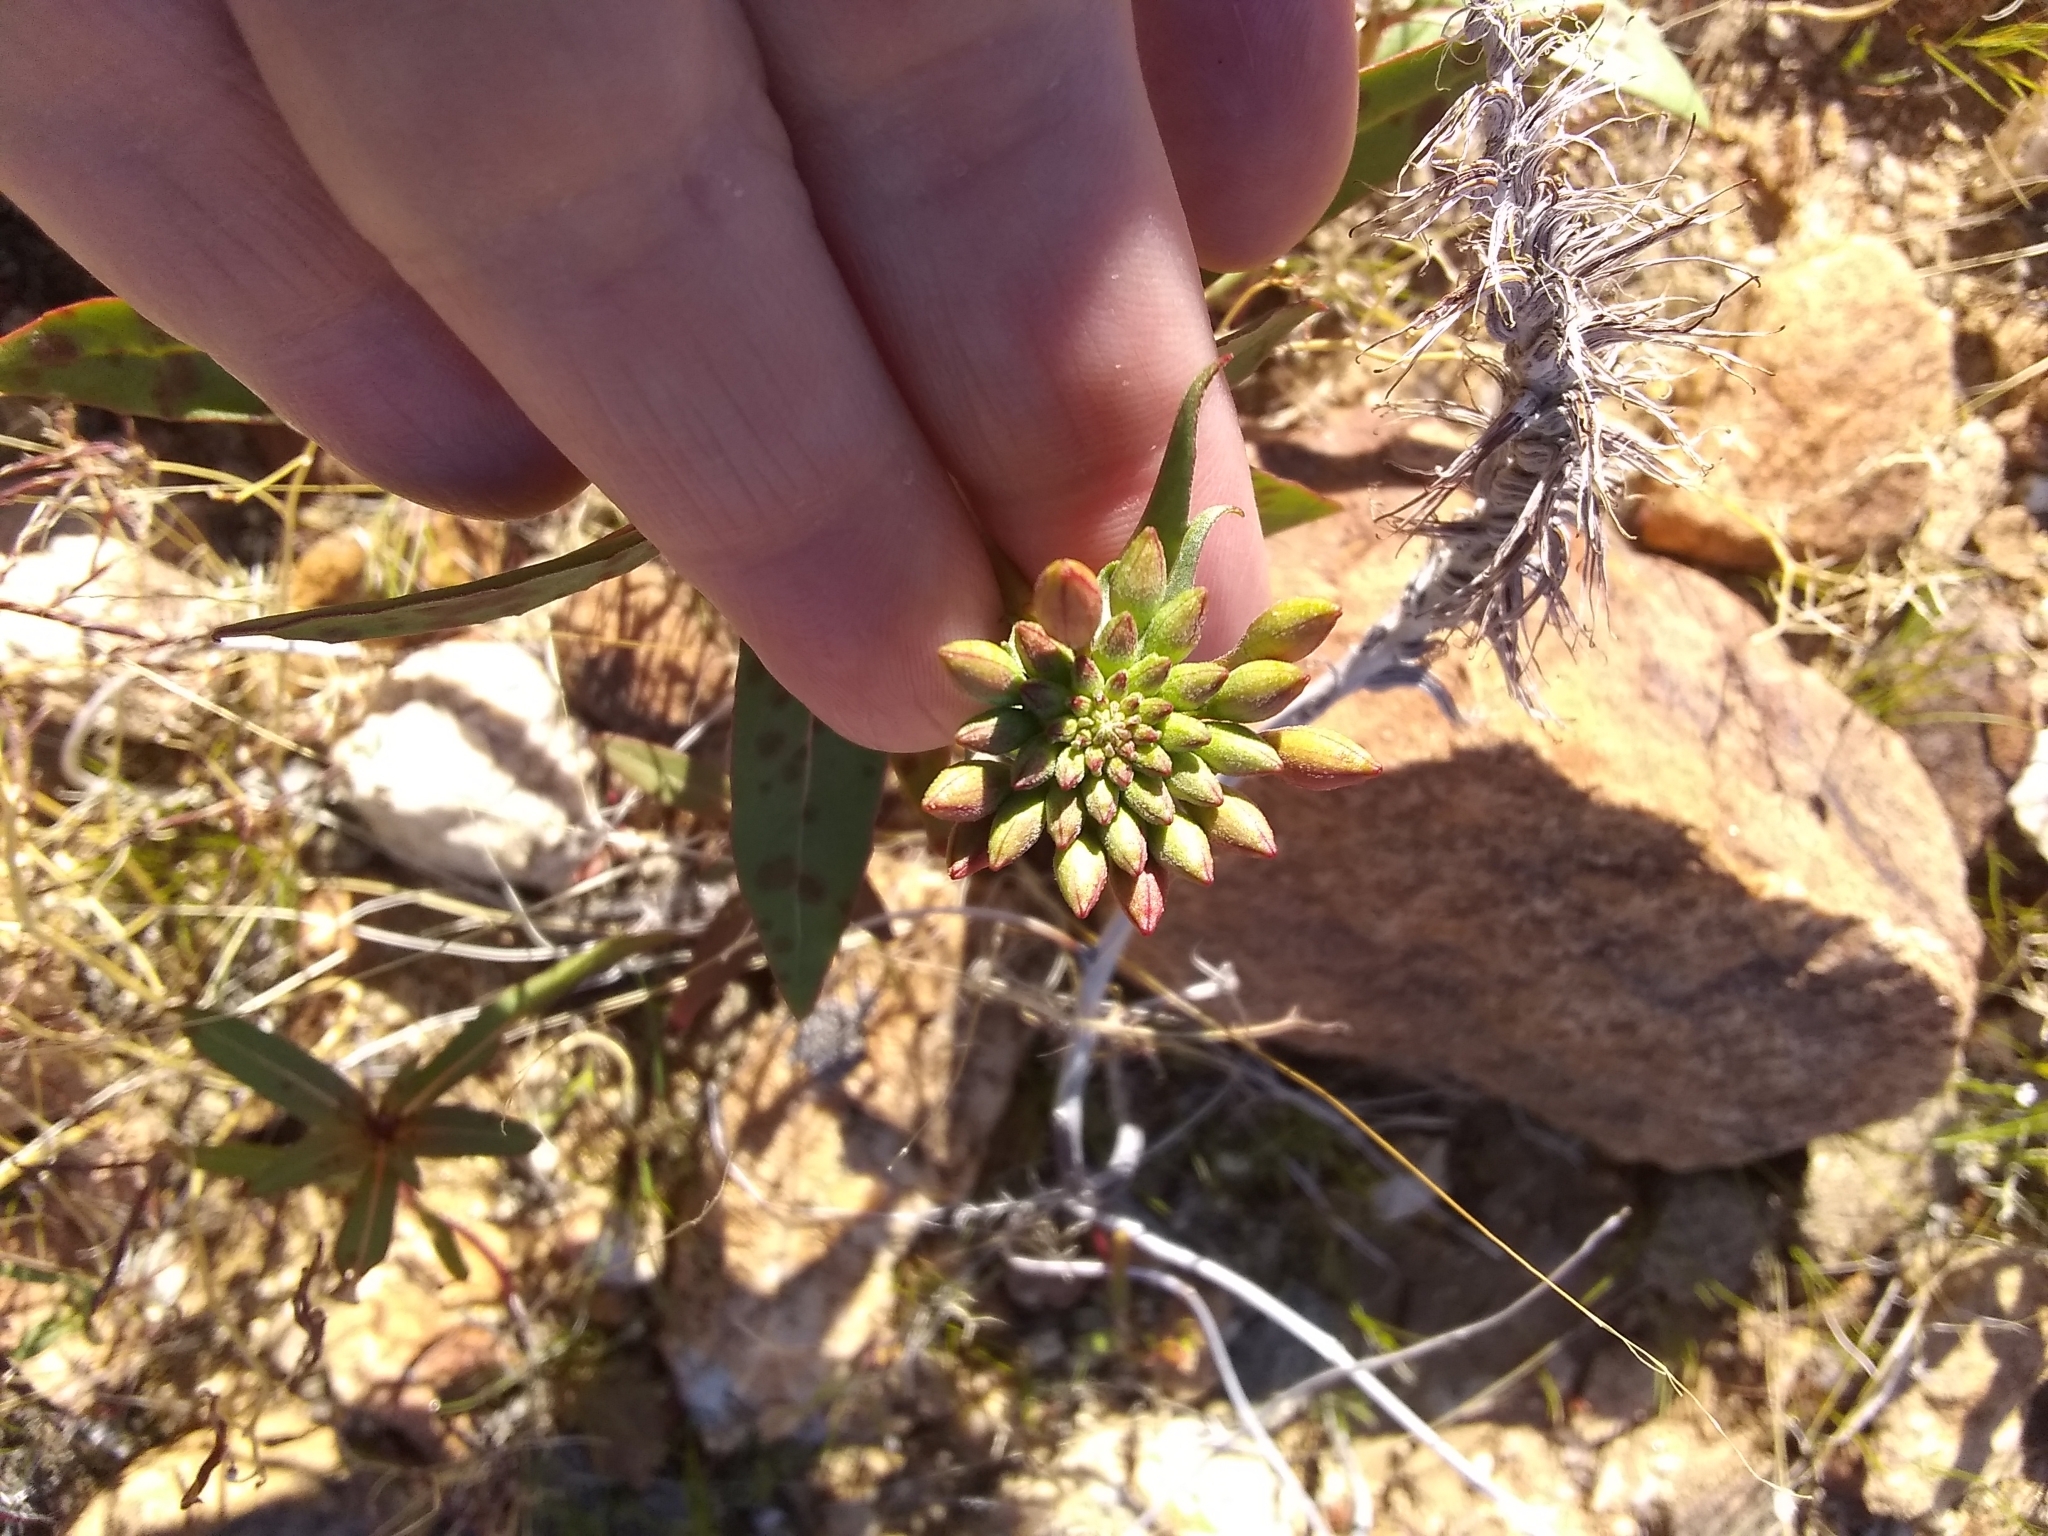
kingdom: Plantae
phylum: Tracheophyta
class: Magnoliopsida
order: Myrtales
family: Onagraceae
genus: Eremothera
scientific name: Eremothera boothii
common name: Booth's evening primrose
